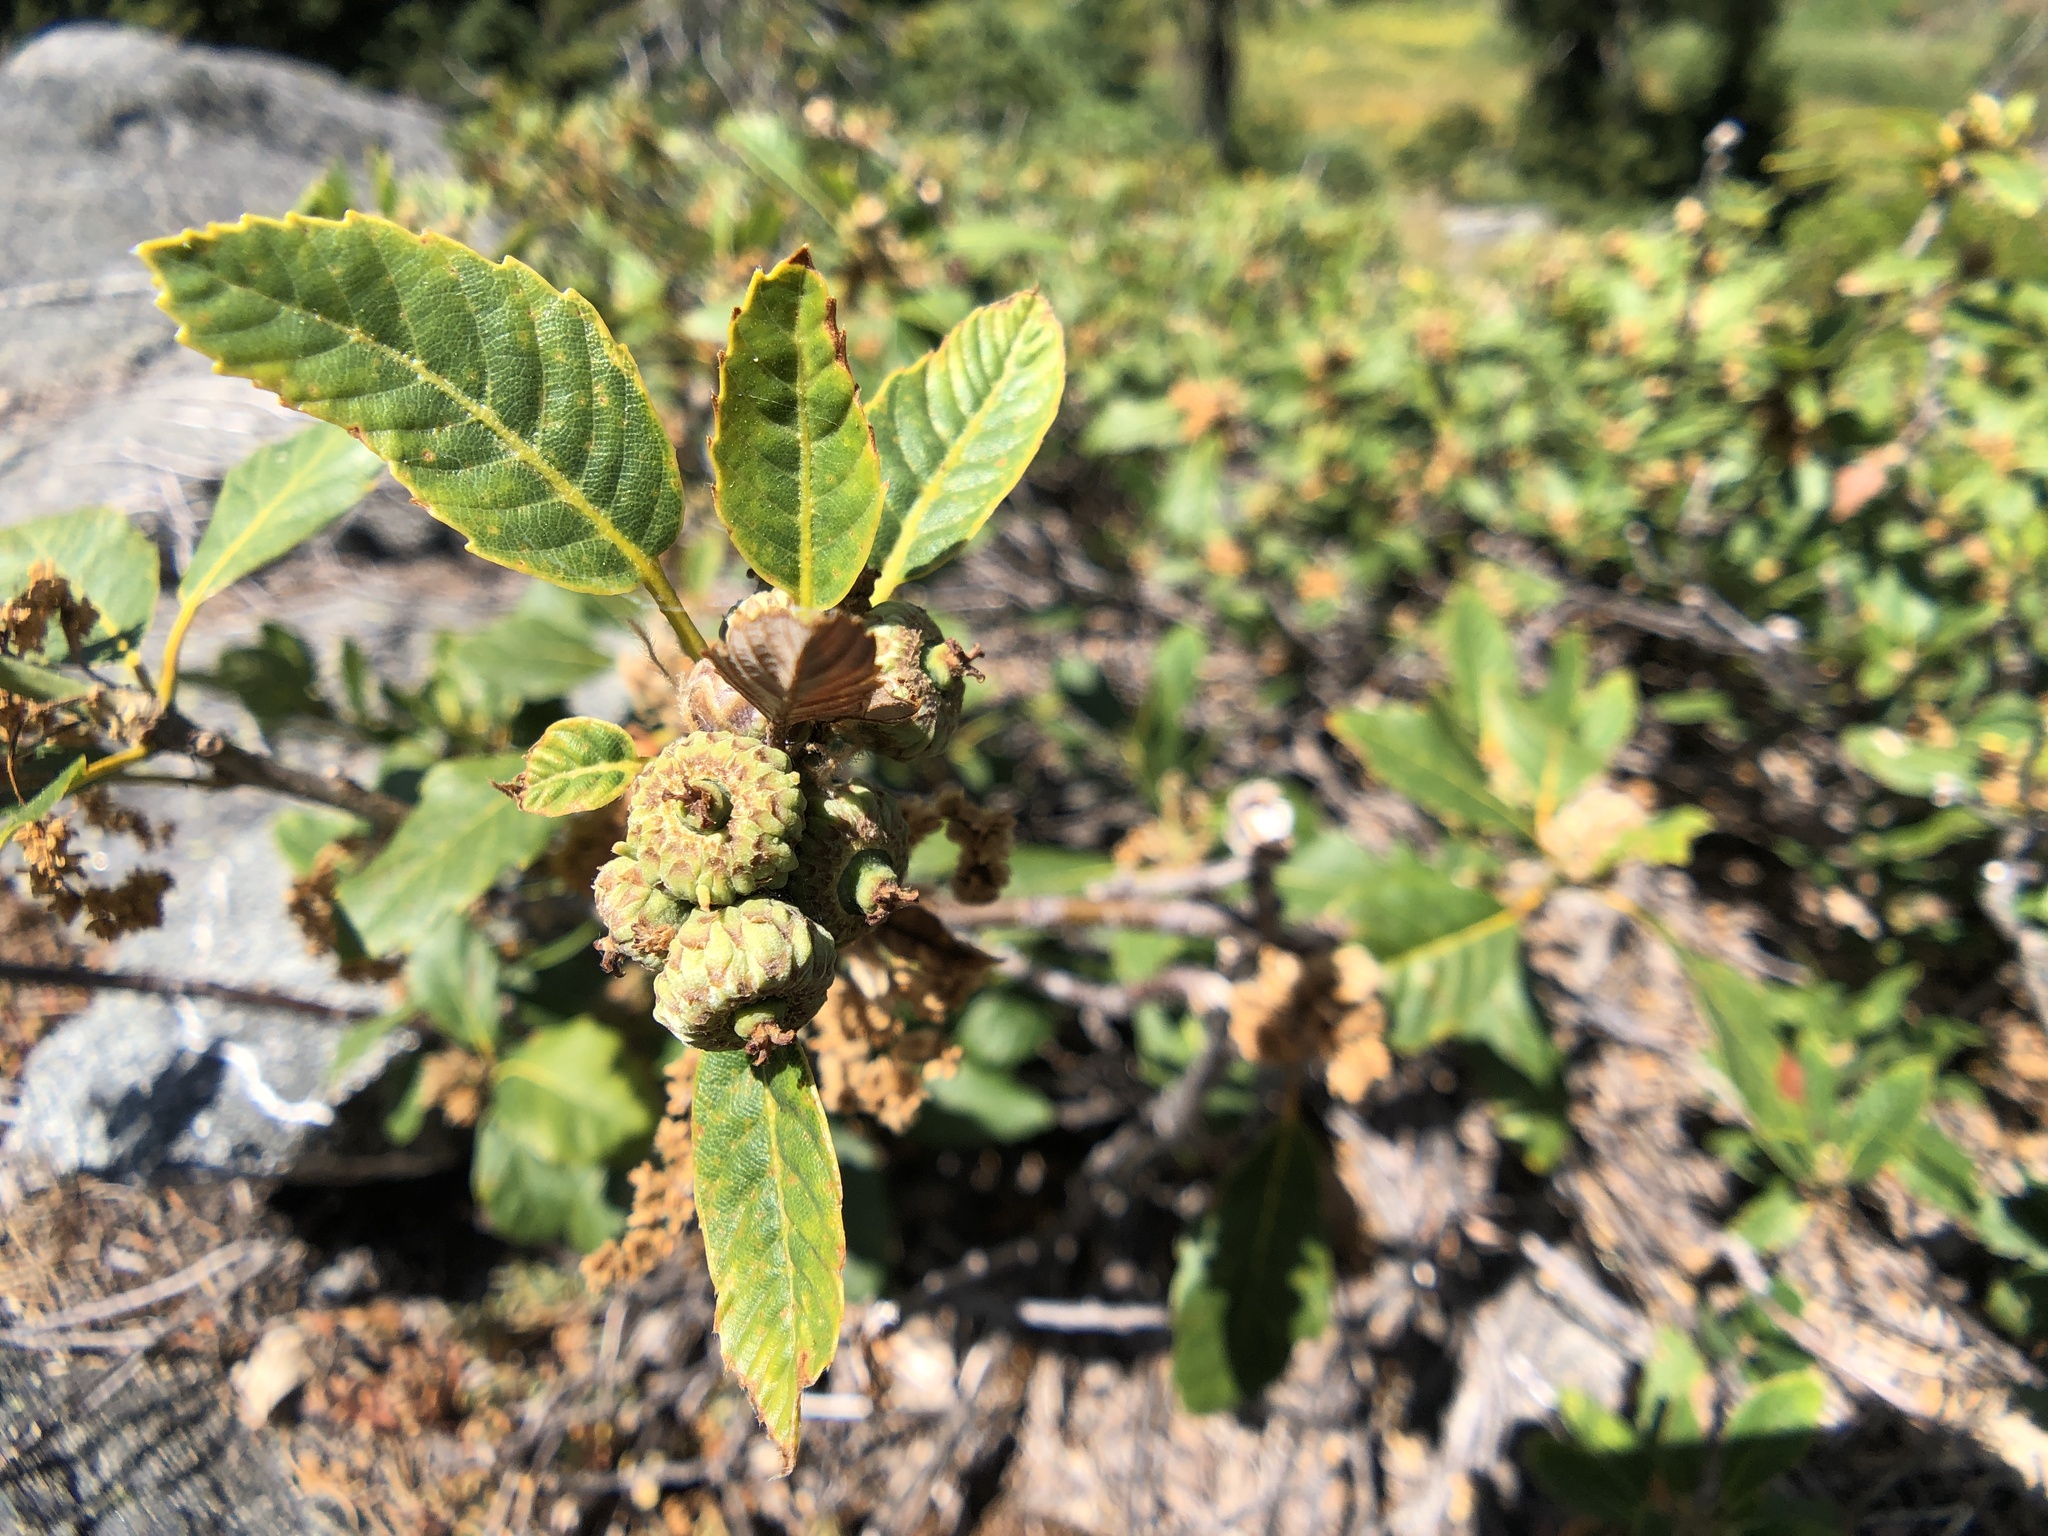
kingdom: Plantae
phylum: Tracheophyta
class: Magnoliopsida
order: Fagales
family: Fagaceae
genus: Quercus
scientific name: Quercus sadleriana
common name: Deer oak
